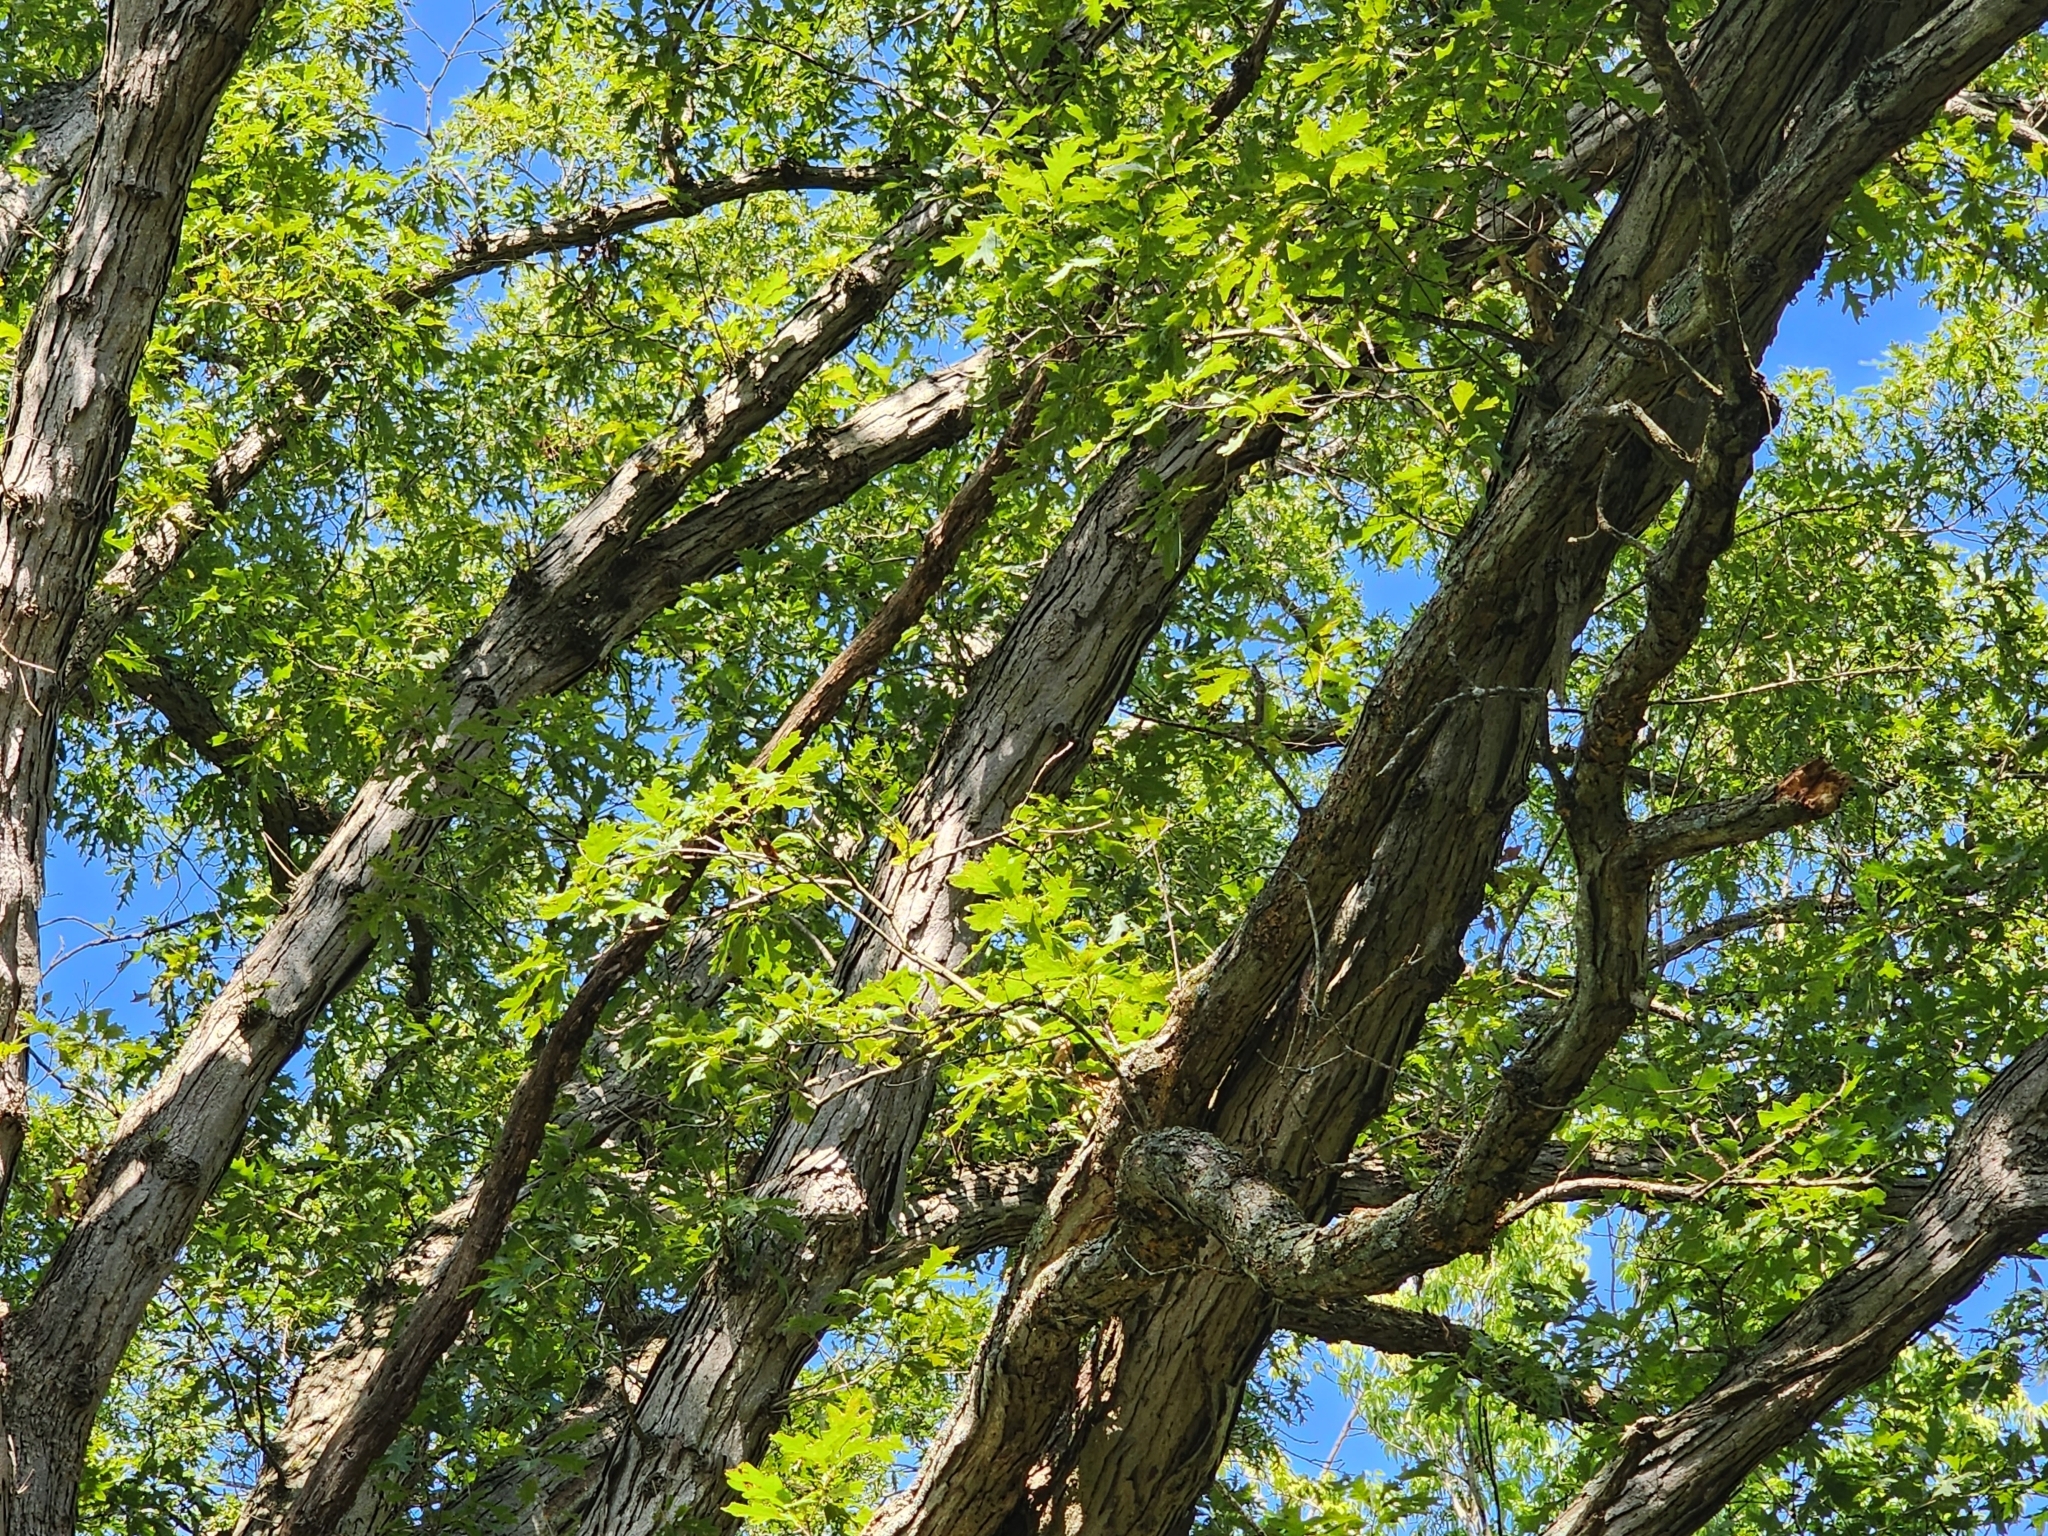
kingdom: Plantae
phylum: Tracheophyta
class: Magnoliopsida
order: Fagales
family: Fagaceae
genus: Quercus
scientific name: Quercus alba
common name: White oak
